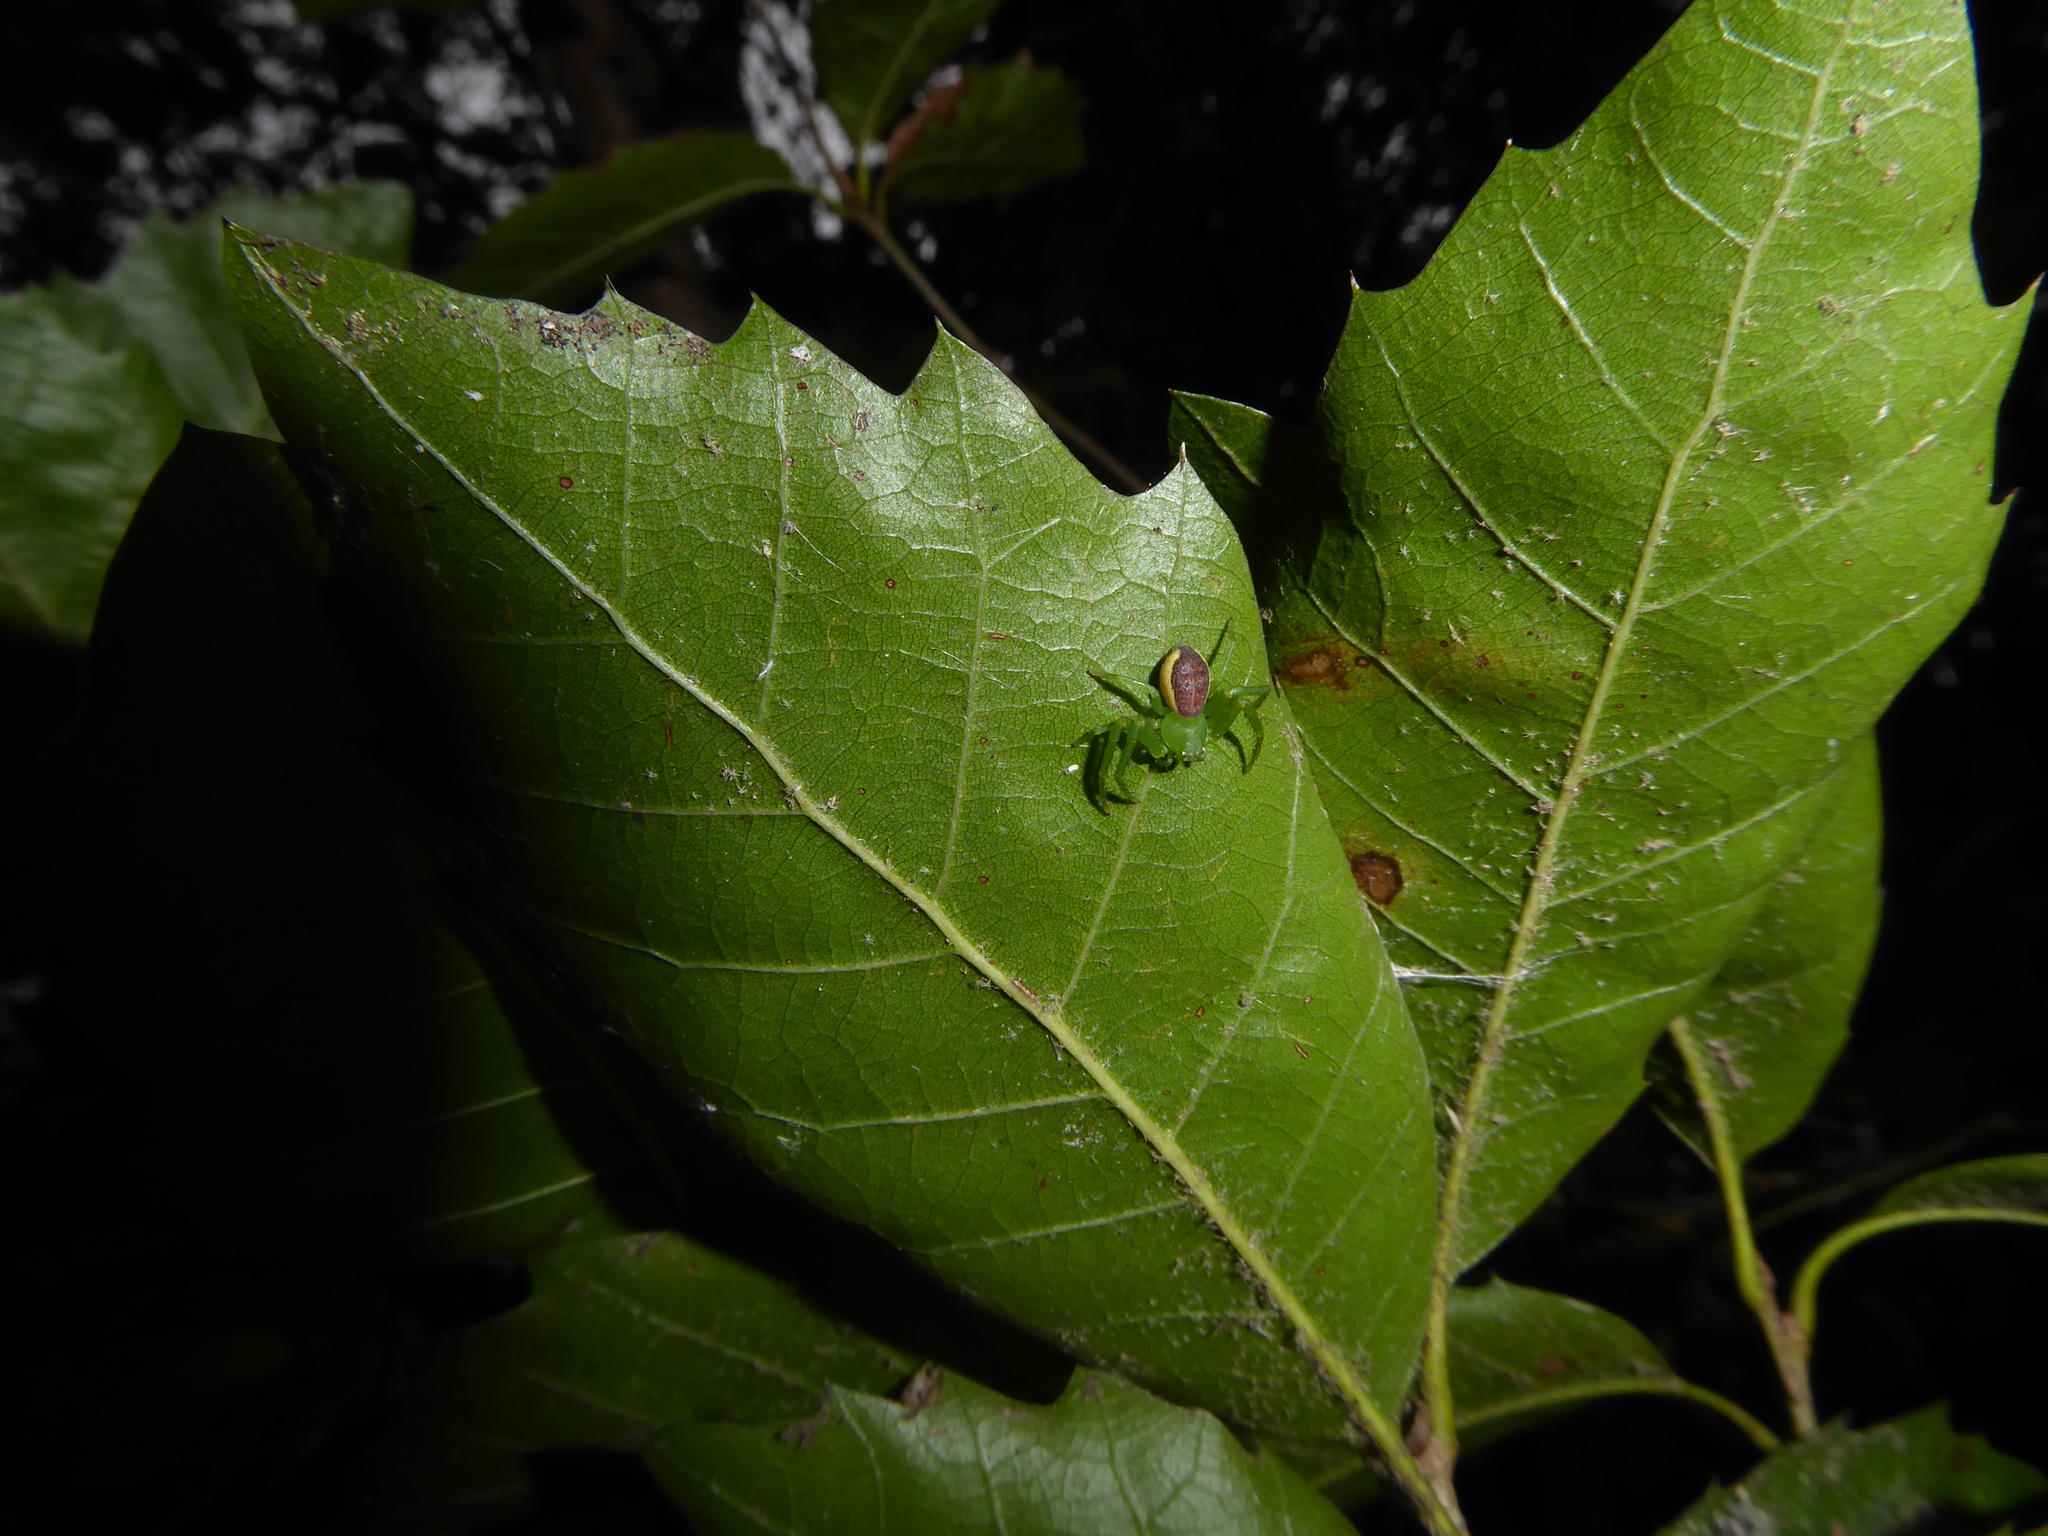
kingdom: Plantae
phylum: Tracheophyta
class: Magnoliopsida
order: Fagales
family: Fagaceae
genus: Quercus
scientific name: Quercus ilex
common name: Evergreen oak
